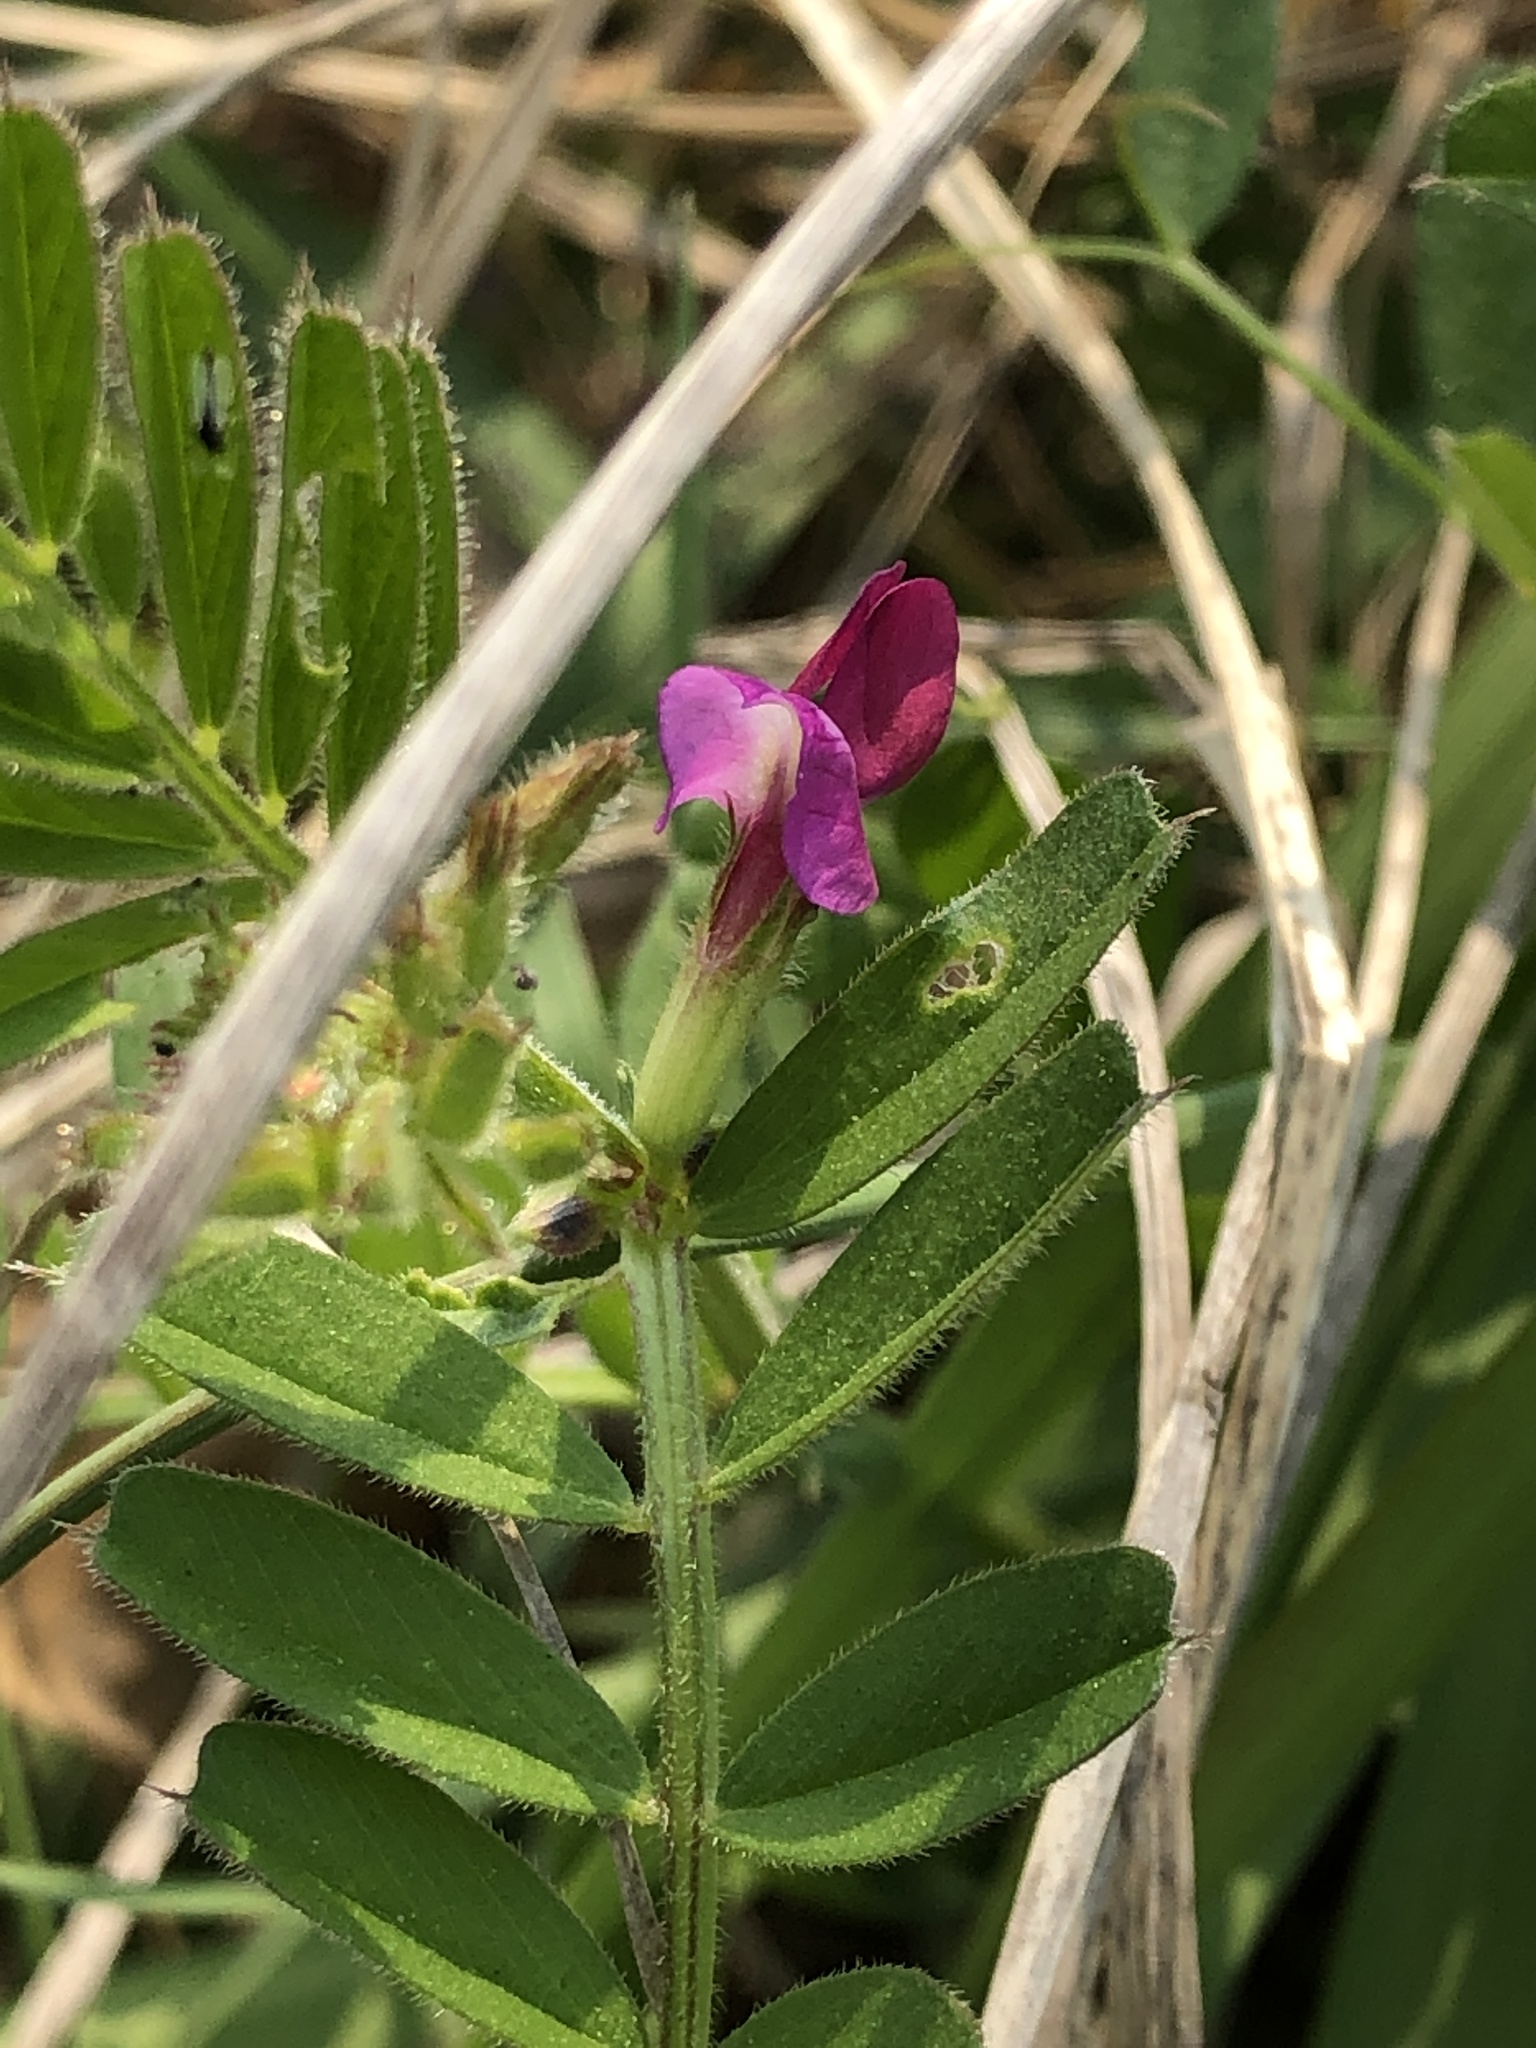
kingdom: Plantae
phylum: Tracheophyta
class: Magnoliopsida
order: Fabales
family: Fabaceae
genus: Vicia
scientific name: Vicia sativa
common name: Garden vetch
